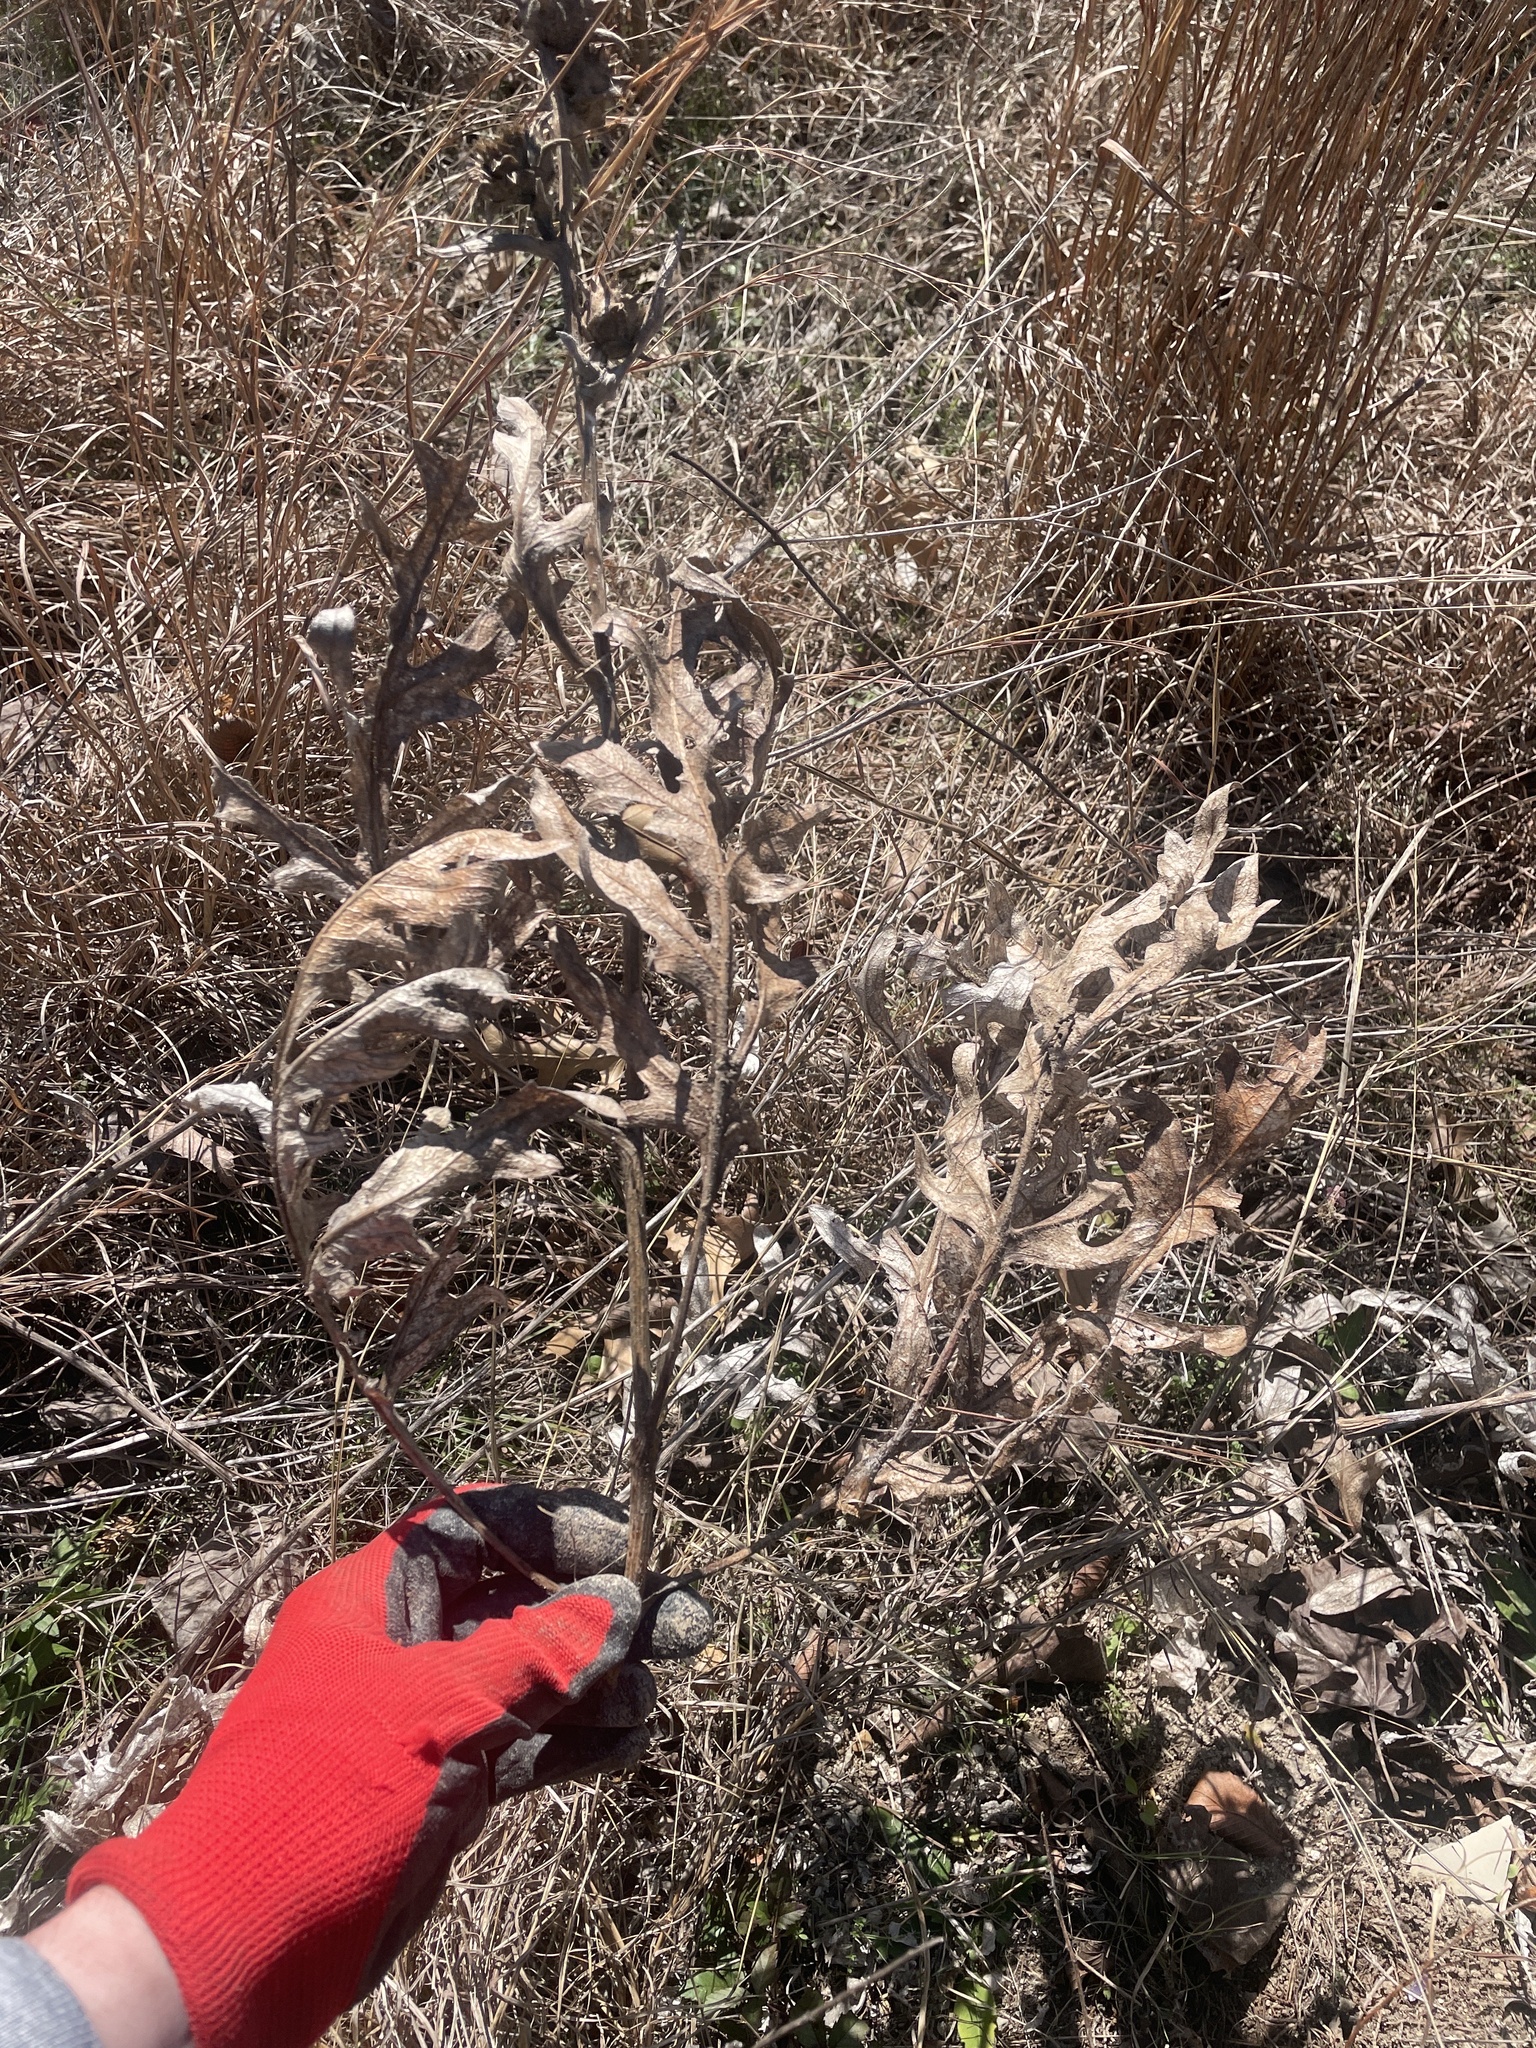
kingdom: Plantae
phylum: Tracheophyta
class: Magnoliopsida
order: Asterales
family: Asteraceae
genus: Silphium
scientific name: Silphium albiflorum
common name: White rosinweed
